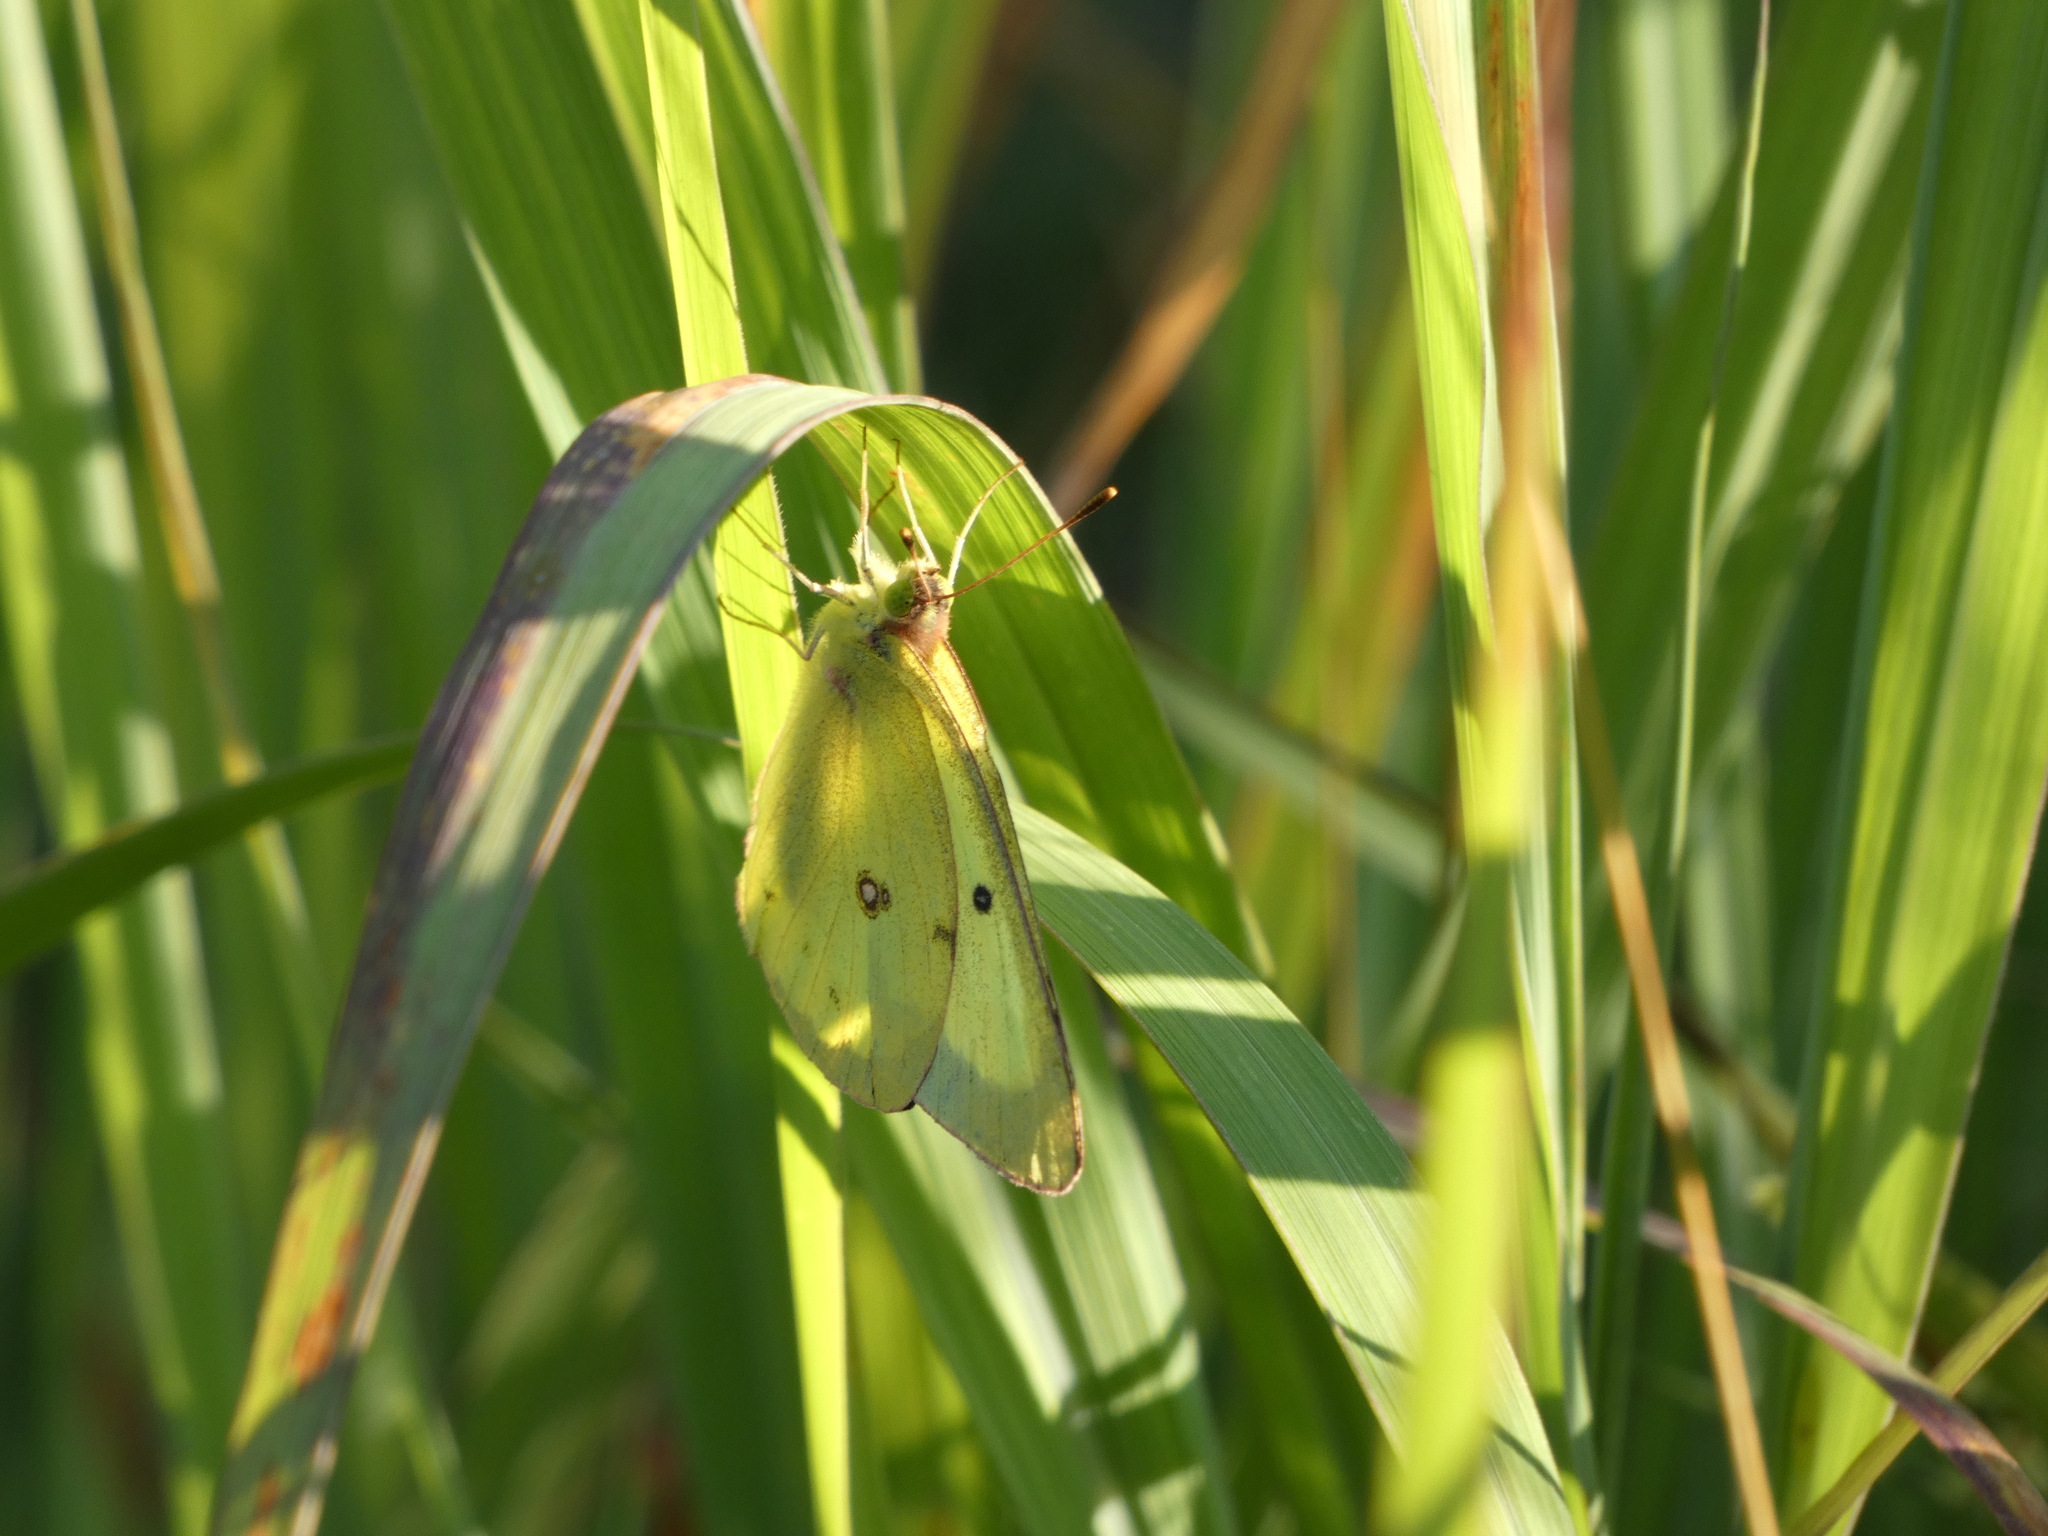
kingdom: Animalia
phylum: Arthropoda
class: Insecta
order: Lepidoptera
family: Pieridae
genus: Colias
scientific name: Colias philodice
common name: Clouded sulphur
